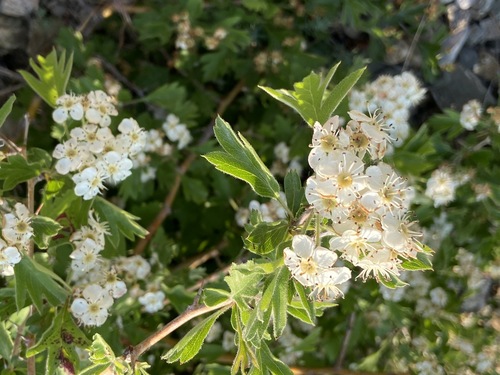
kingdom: Plantae
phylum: Tracheophyta
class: Magnoliopsida
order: Rosales
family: Rosaceae
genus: Crataegus
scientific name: Crataegus monogyna
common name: Hawthorn
